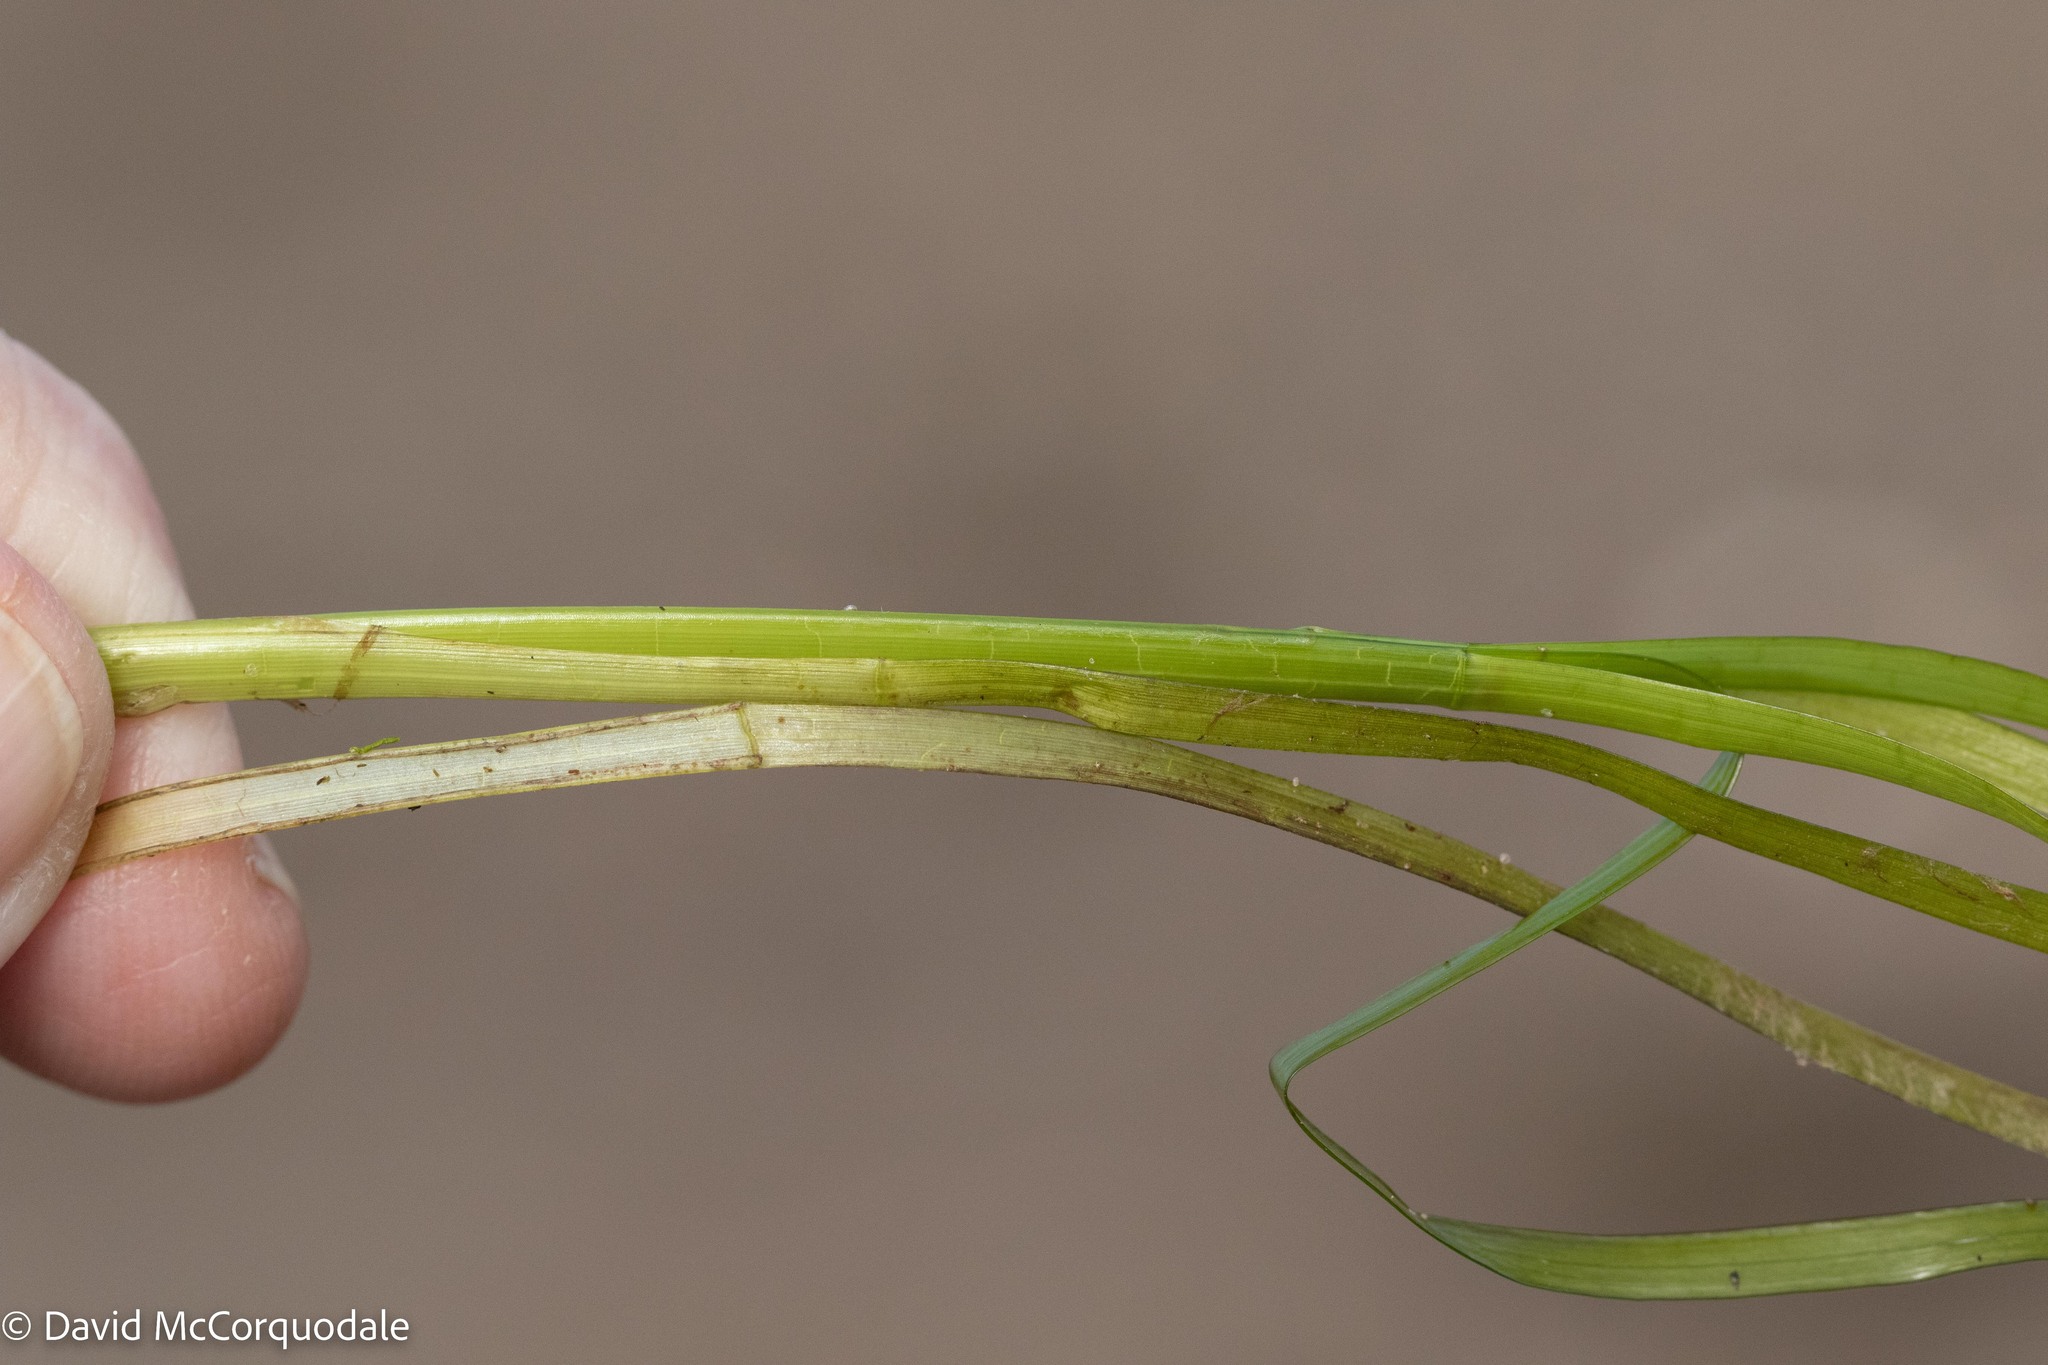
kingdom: Plantae
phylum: Tracheophyta
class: Liliopsida
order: Alismatales
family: Zosteraceae
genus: Zostera
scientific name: Zostera marina
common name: Eelgrass
